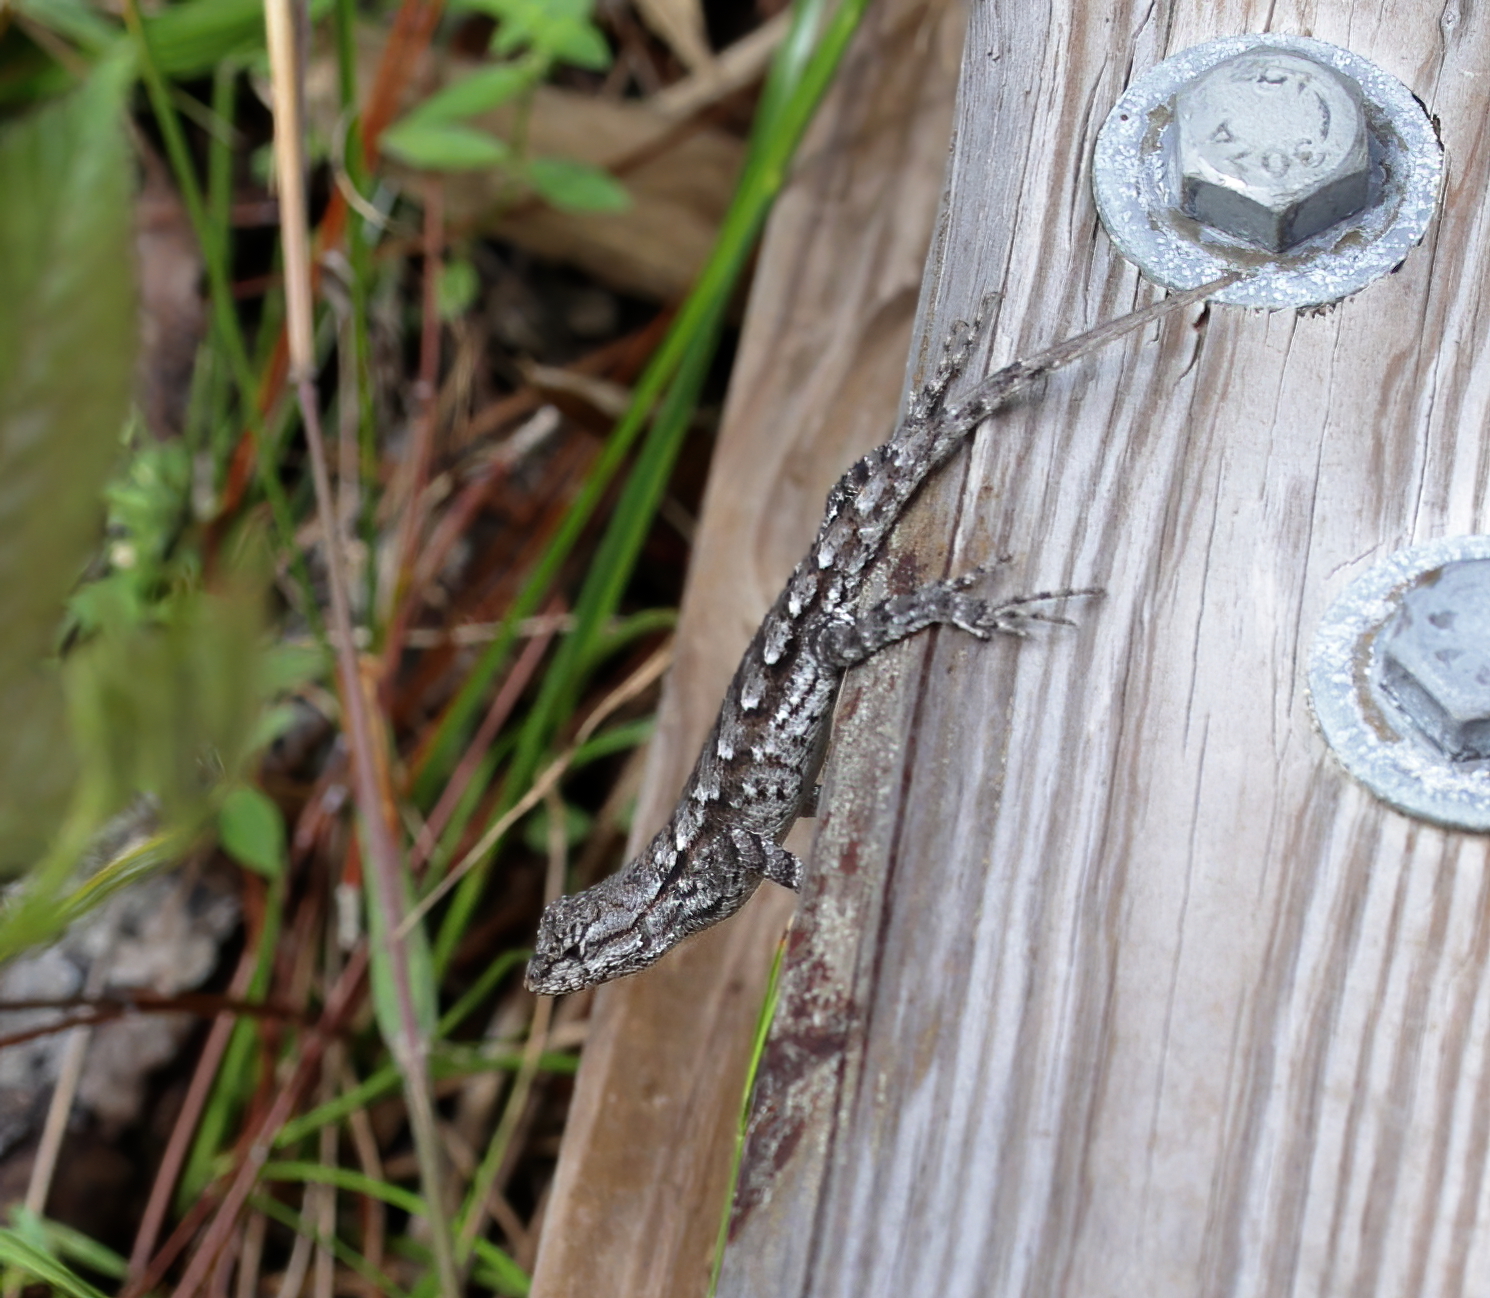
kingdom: Animalia
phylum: Chordata
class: Squamata
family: Phrynosomatidae
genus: Sceloporus
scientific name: Sceloporus undulatus
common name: Eastern fence lizard
